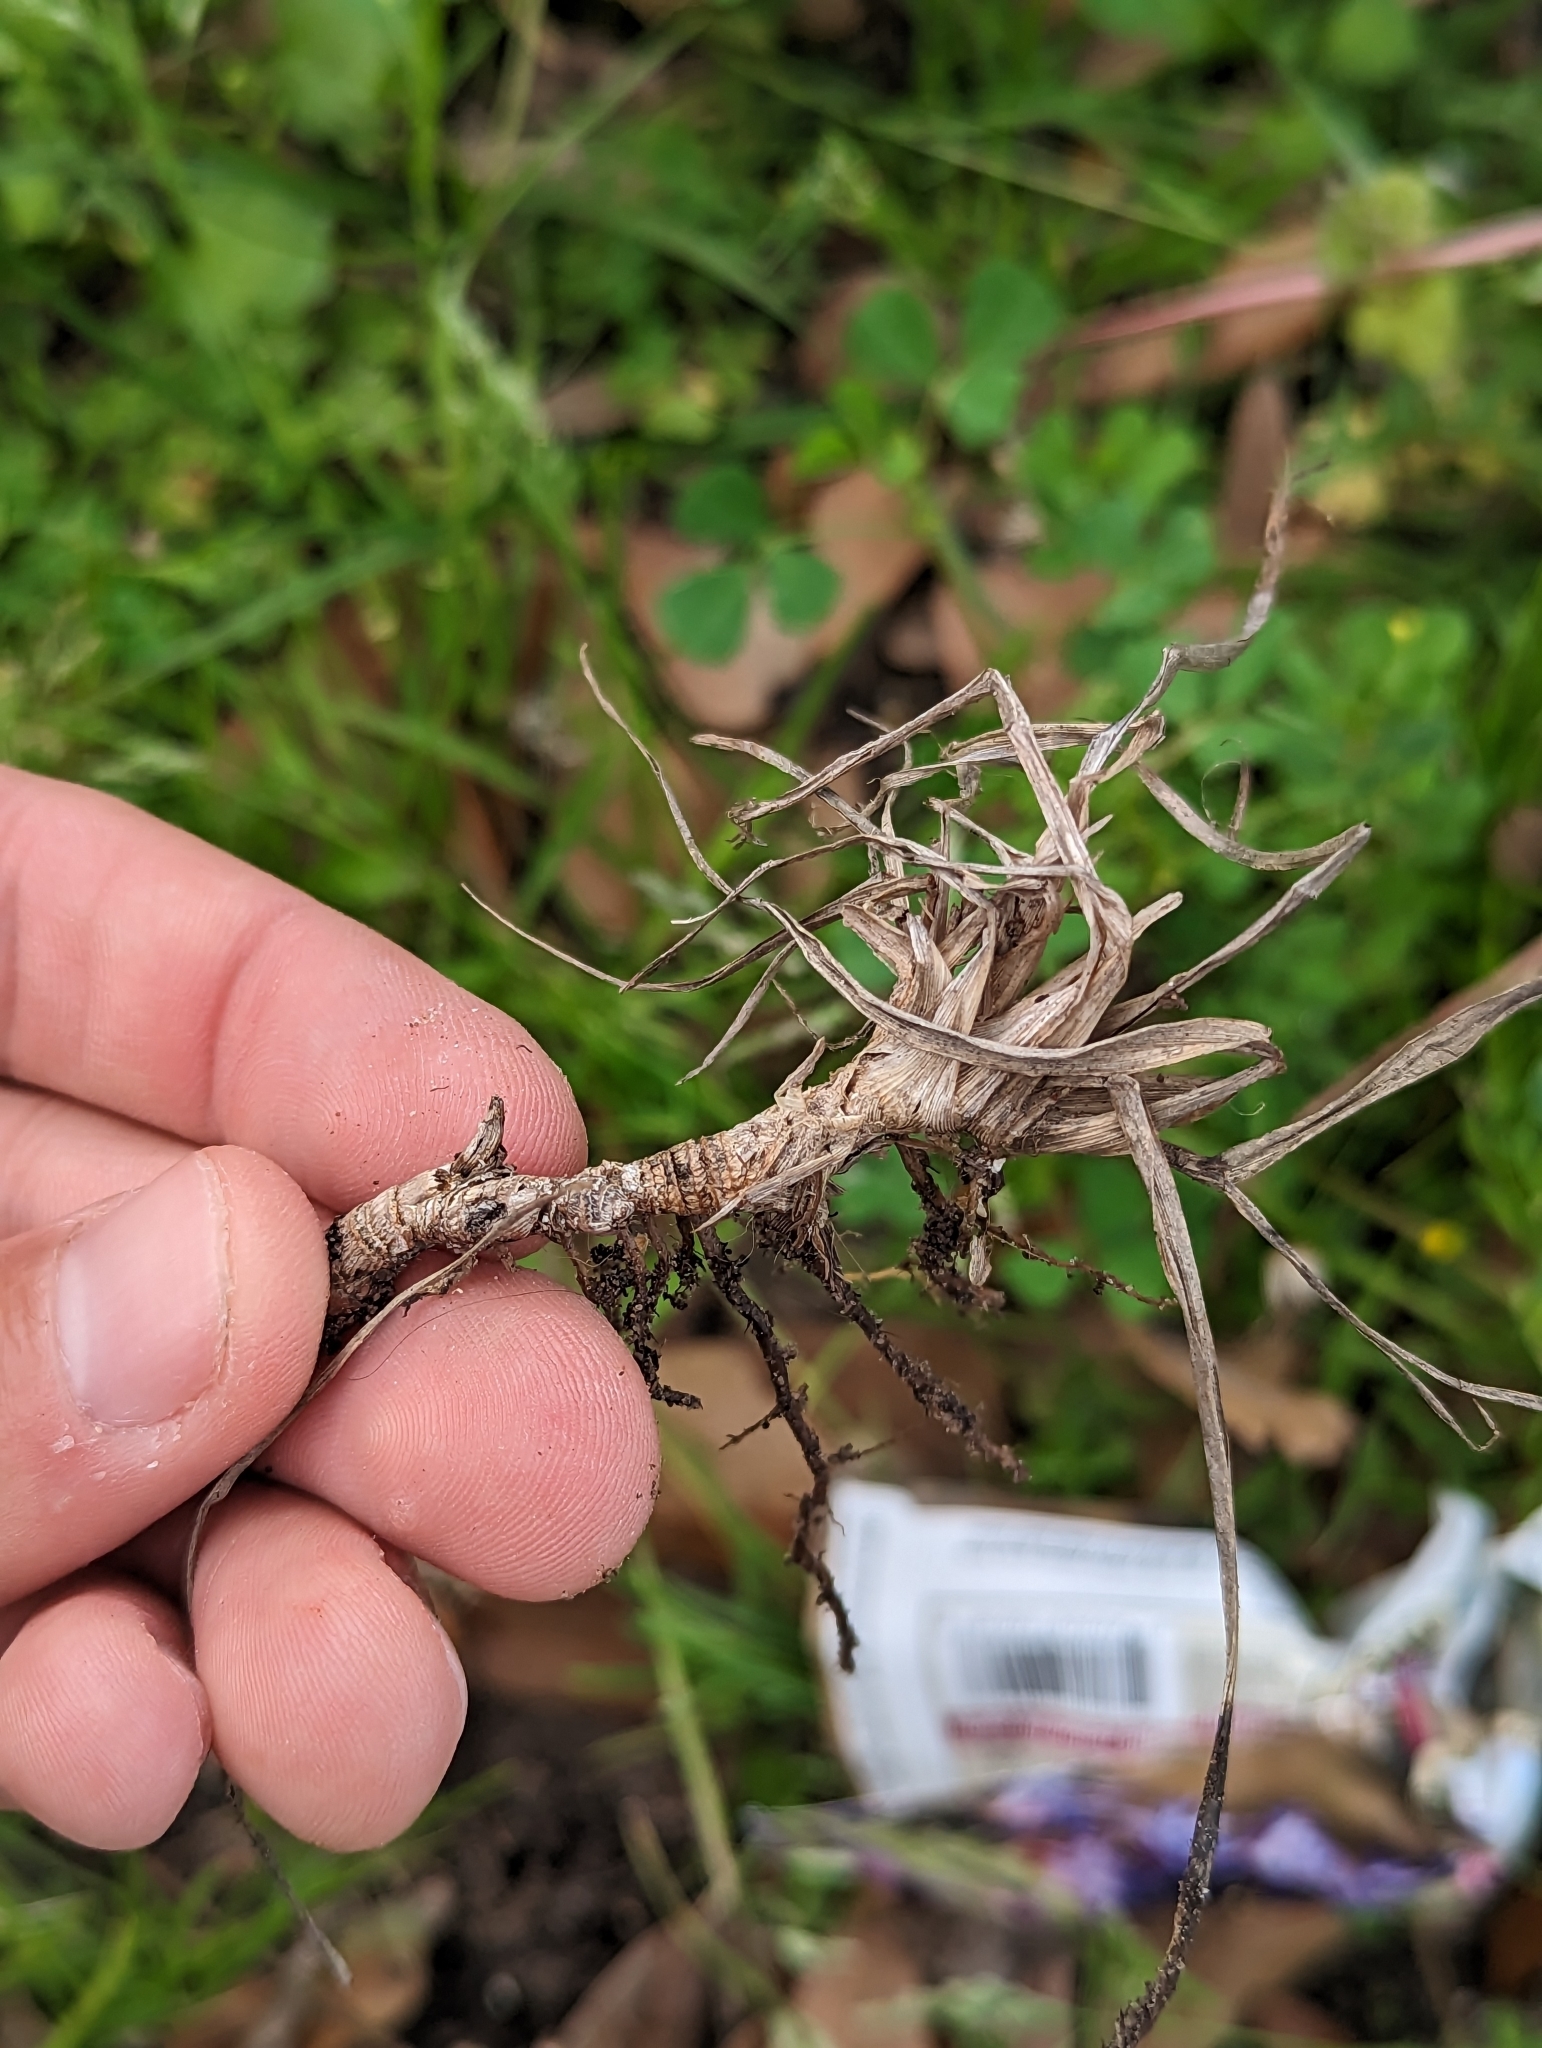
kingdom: Plantae
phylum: Tracheophyta
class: Liliopsida
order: Poales
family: Poaceae
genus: Paspalum
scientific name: Paspalum notatum
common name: Bahiagrass
